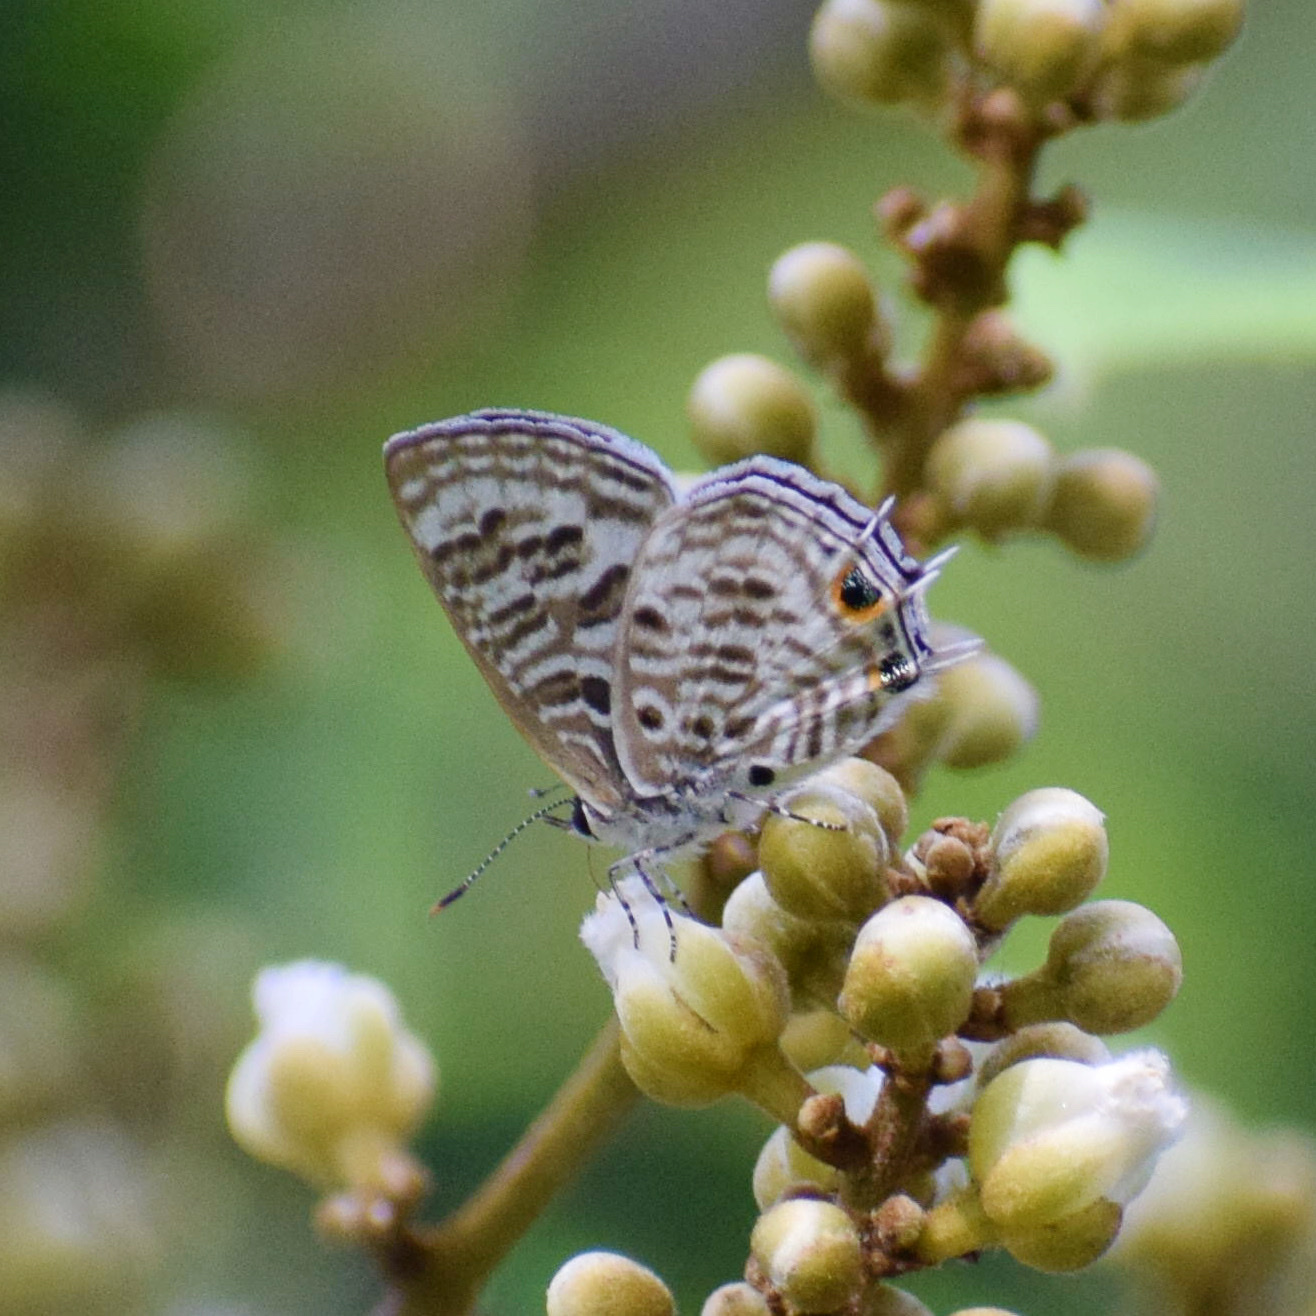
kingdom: Animalia
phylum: Arthropoda
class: Insecta
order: Lepidoptera
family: Lycaenidae
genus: Anthene
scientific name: Anthene larydas
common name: Forest hairtail
